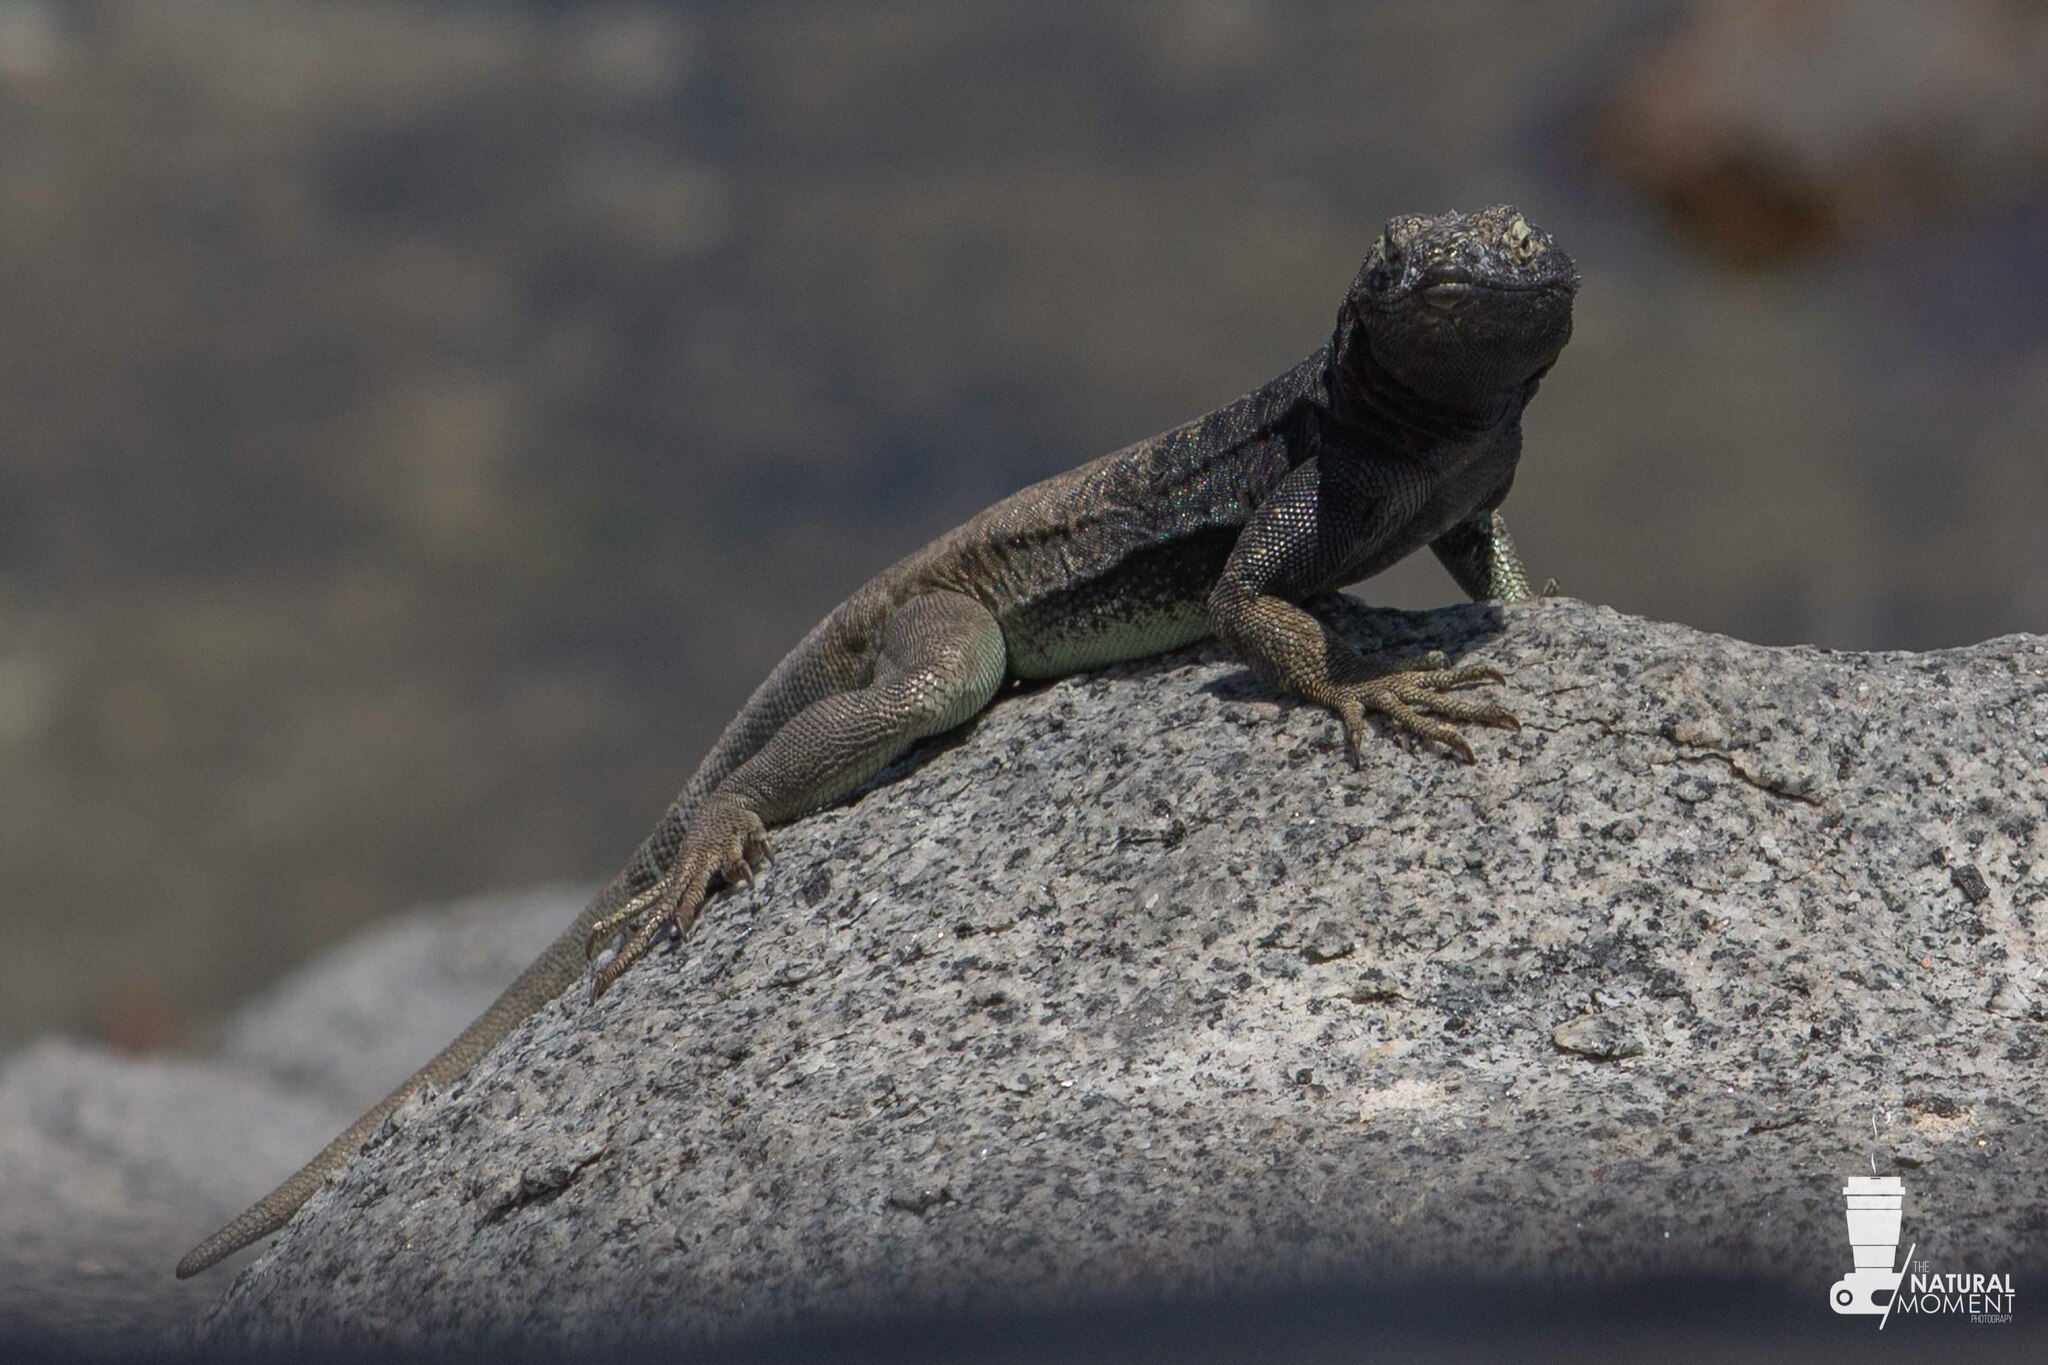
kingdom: Animalia
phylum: Chordata
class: Squamata
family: Tropiduridae
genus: Microlophus
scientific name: Microlophus quadrivittatus
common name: Four-banded pacific iguana
